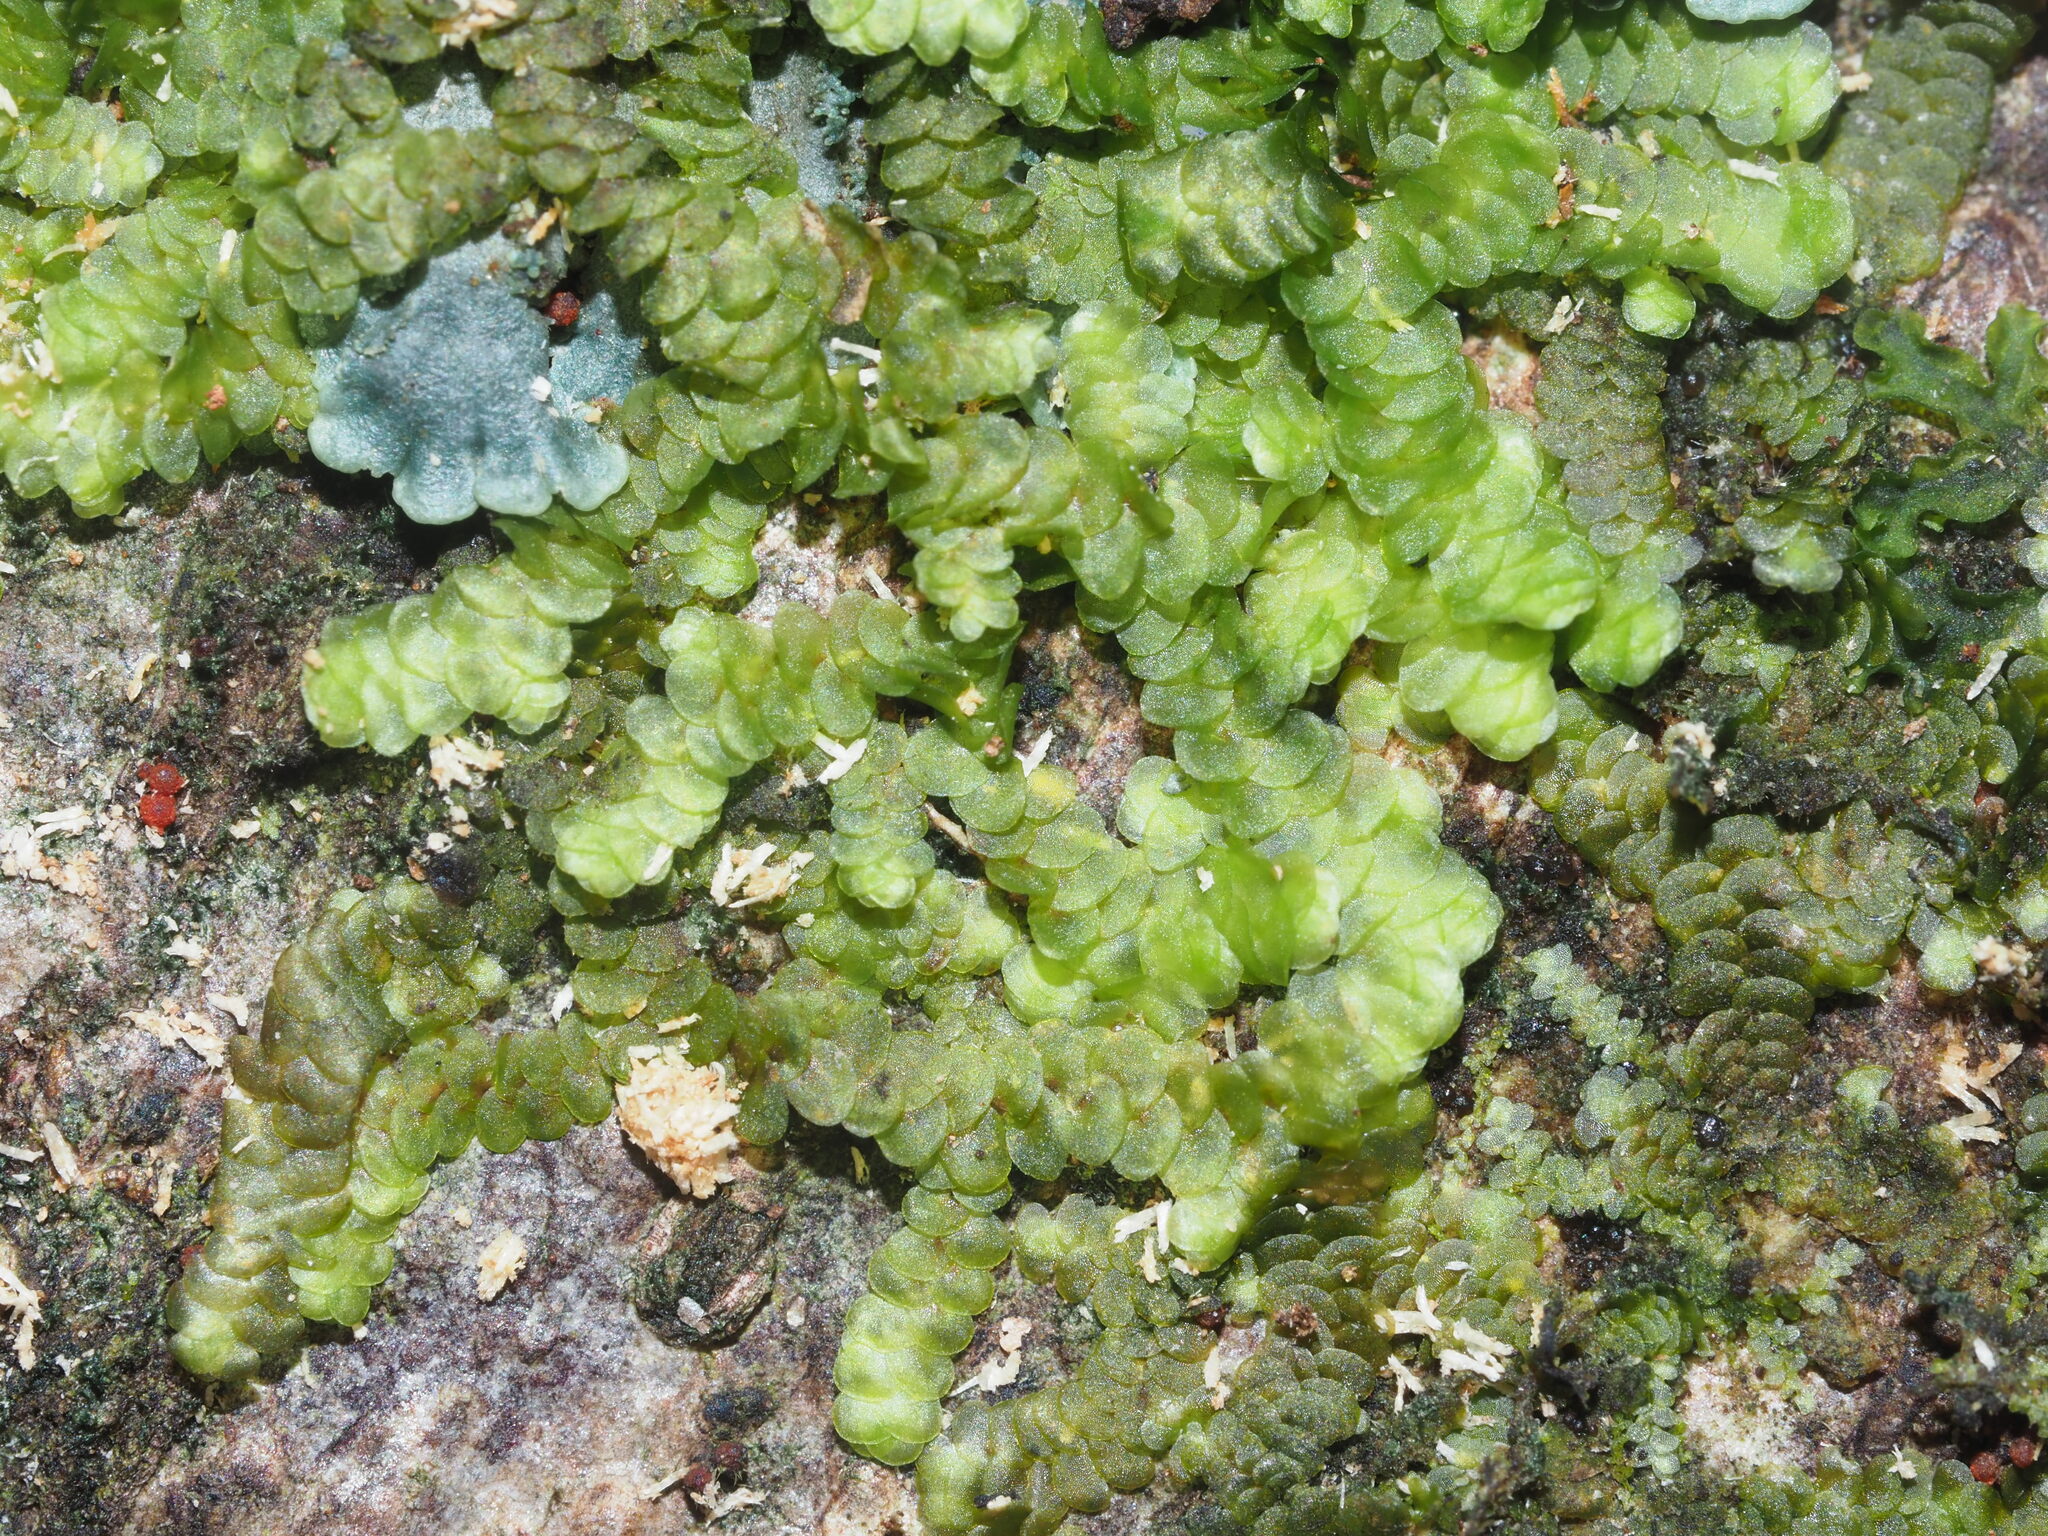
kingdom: Plantae
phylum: Marchantiophyta
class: Jungermanniopsida
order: Porellales
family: Frullaniaceae
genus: Frullania
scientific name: Frullania sandvicensis
